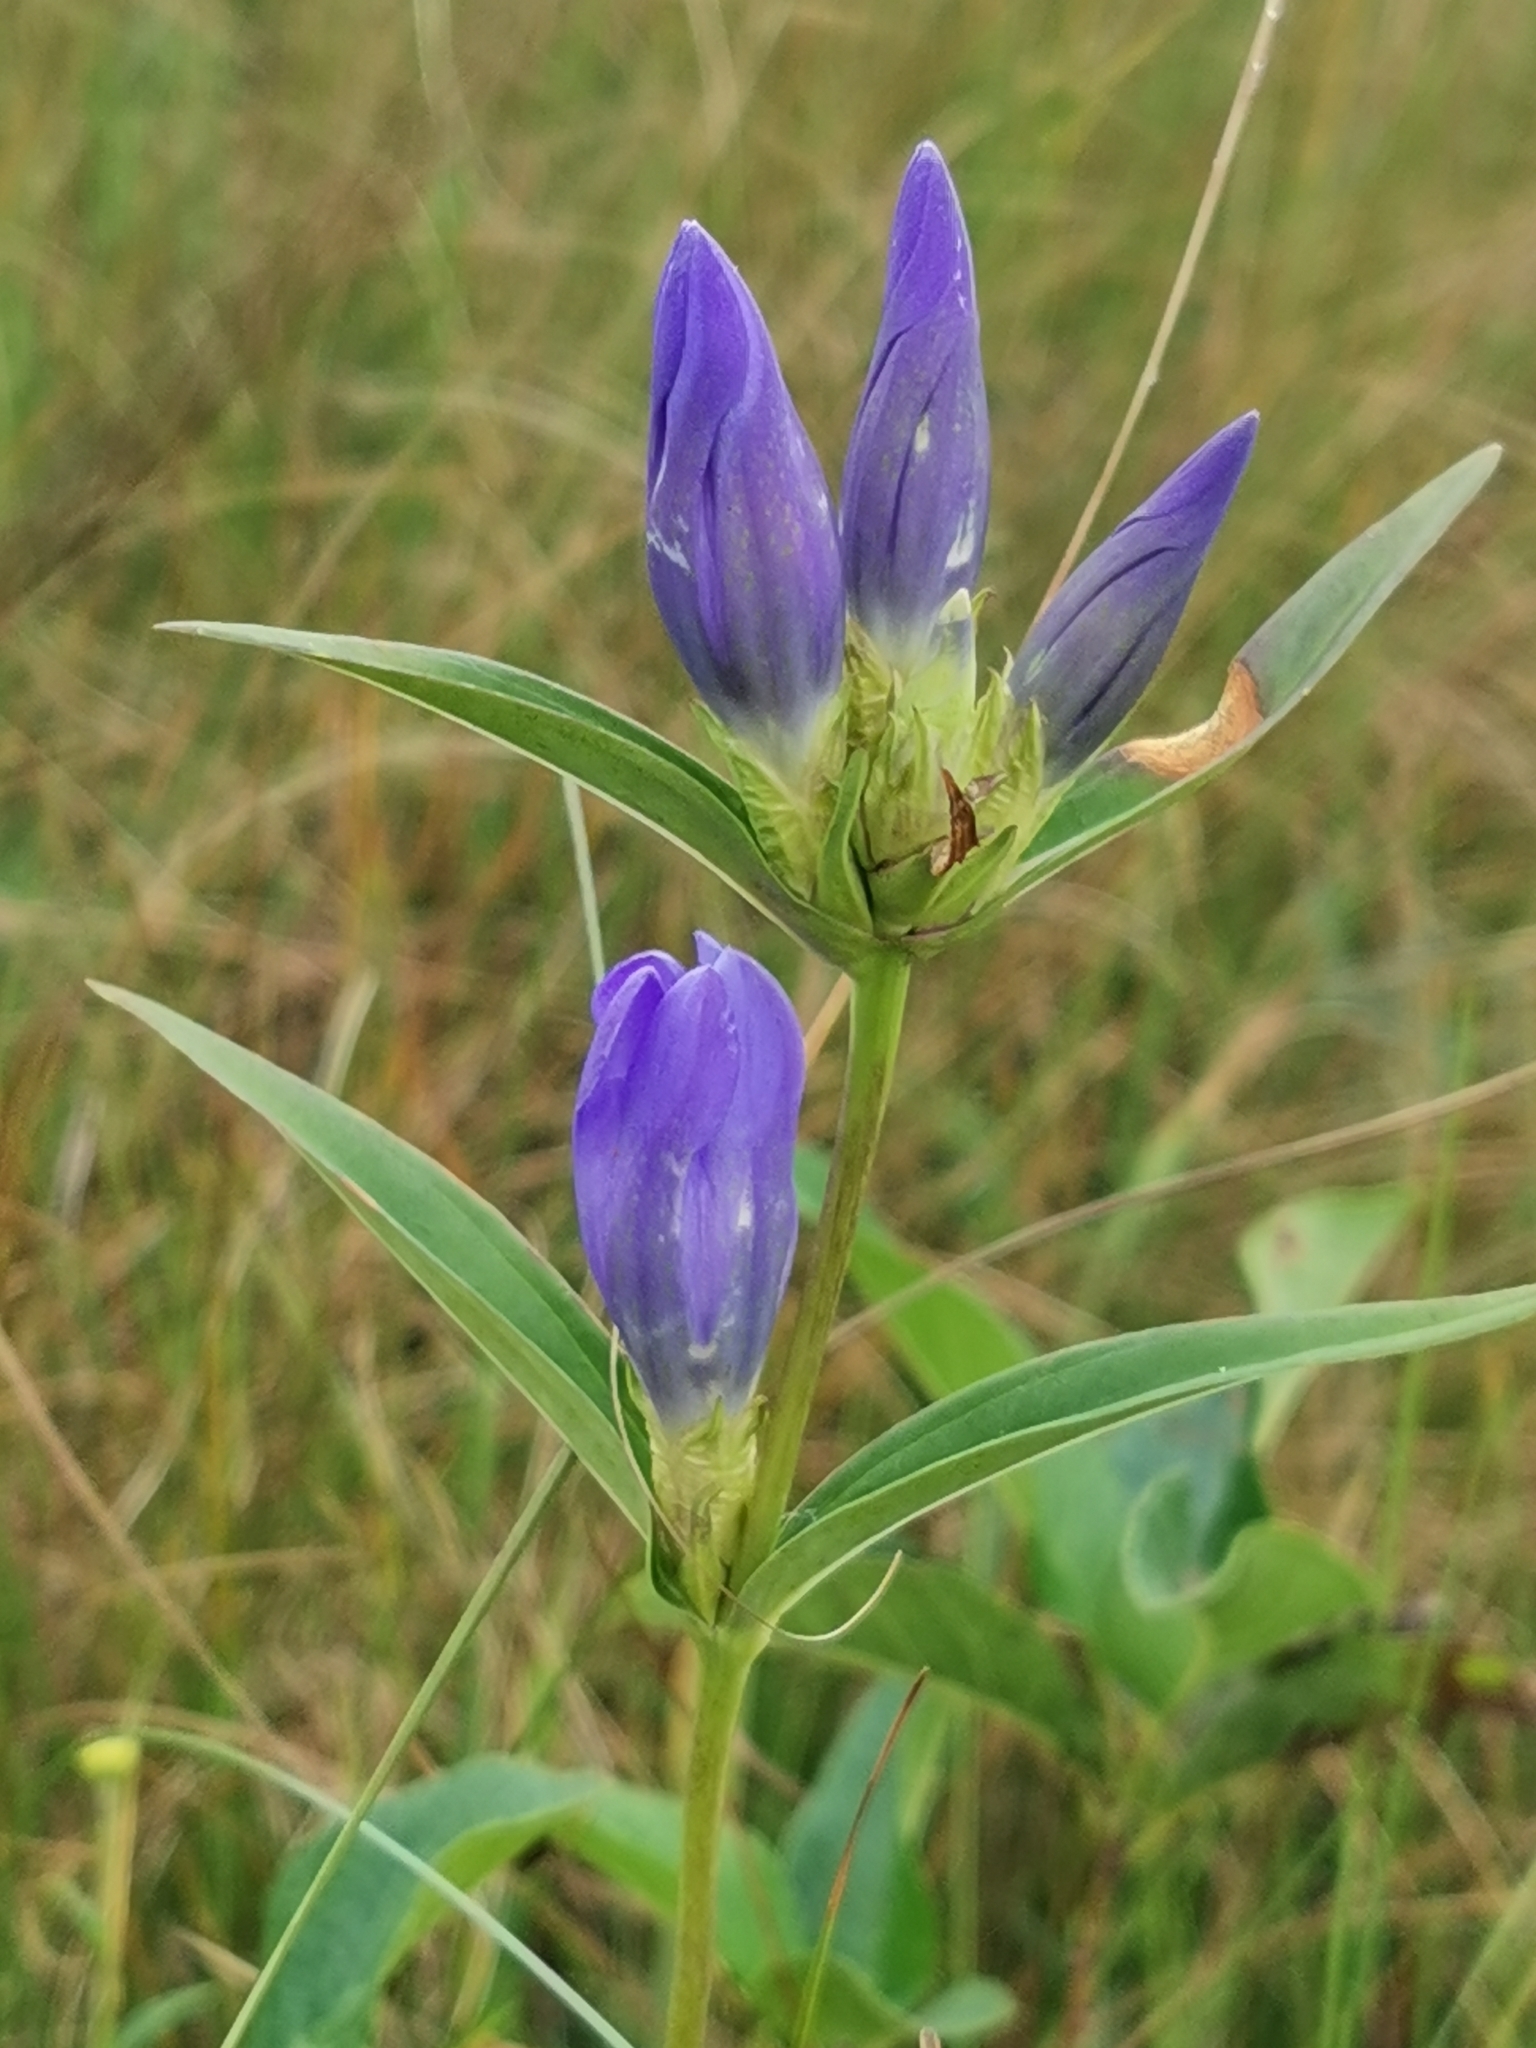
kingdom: Plantae
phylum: Tracheophyta
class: Magnoliopsida
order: Gentianales
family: Gentianaceae
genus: Gentiana
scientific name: Gentiana triflora
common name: Three-flower gentian
